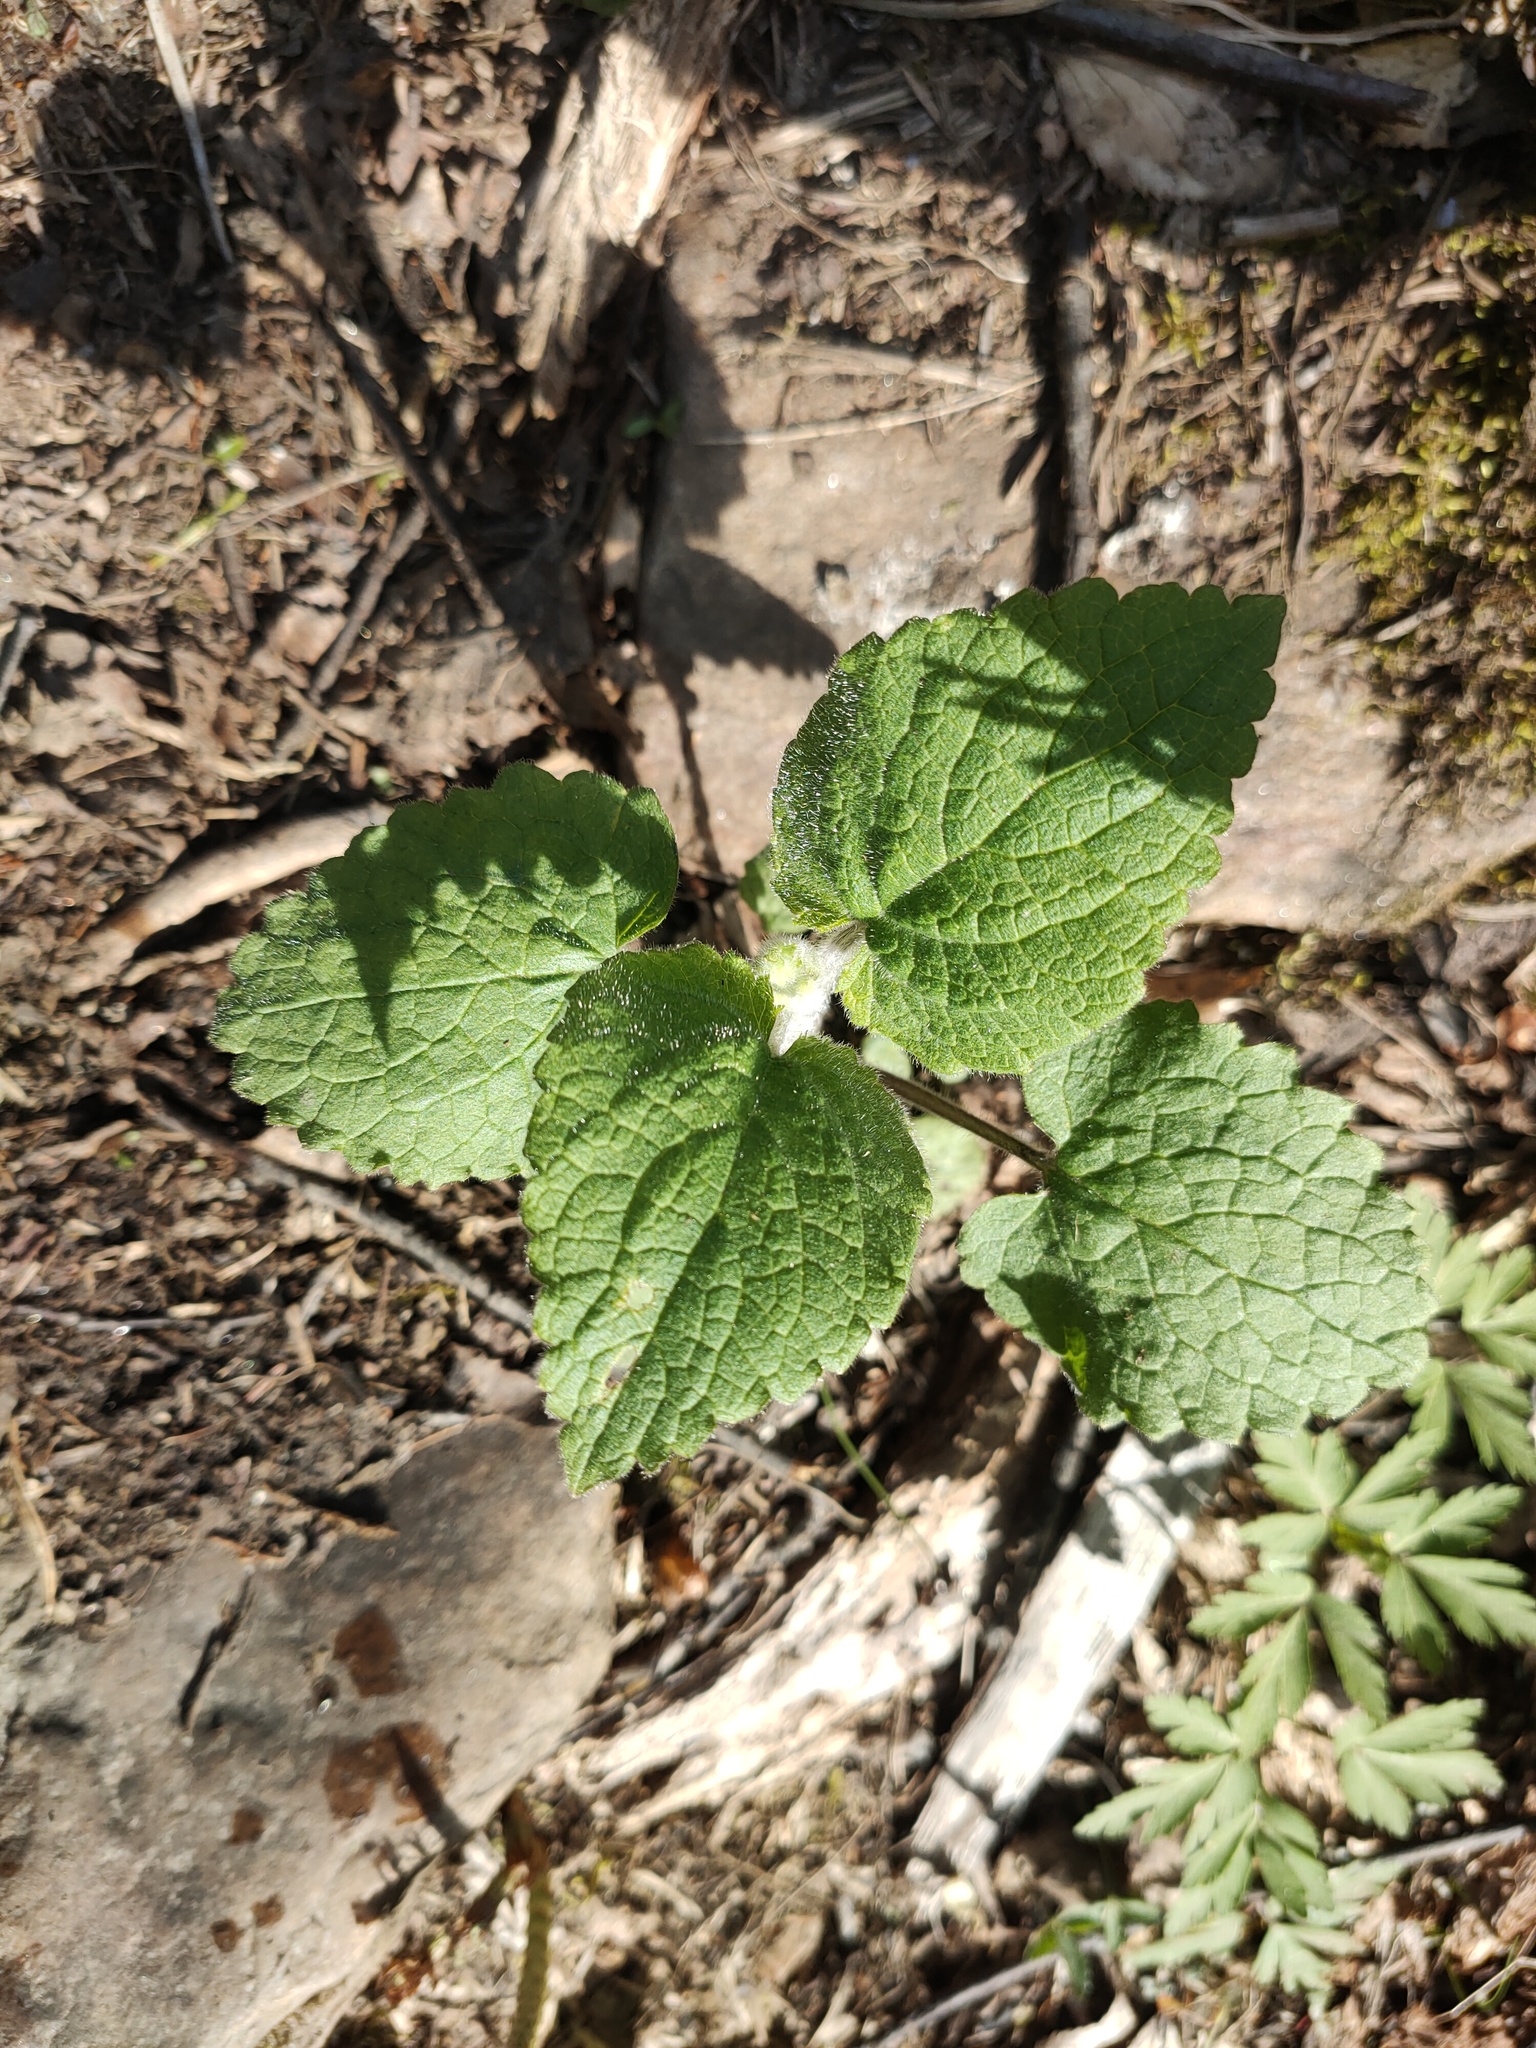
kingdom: Plantae
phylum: Tracheophyta
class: Magnoliopsida
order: Lamiales
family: Lamiaceae
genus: Stachys
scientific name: Stachys sylvatica
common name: Hedge woundwort
